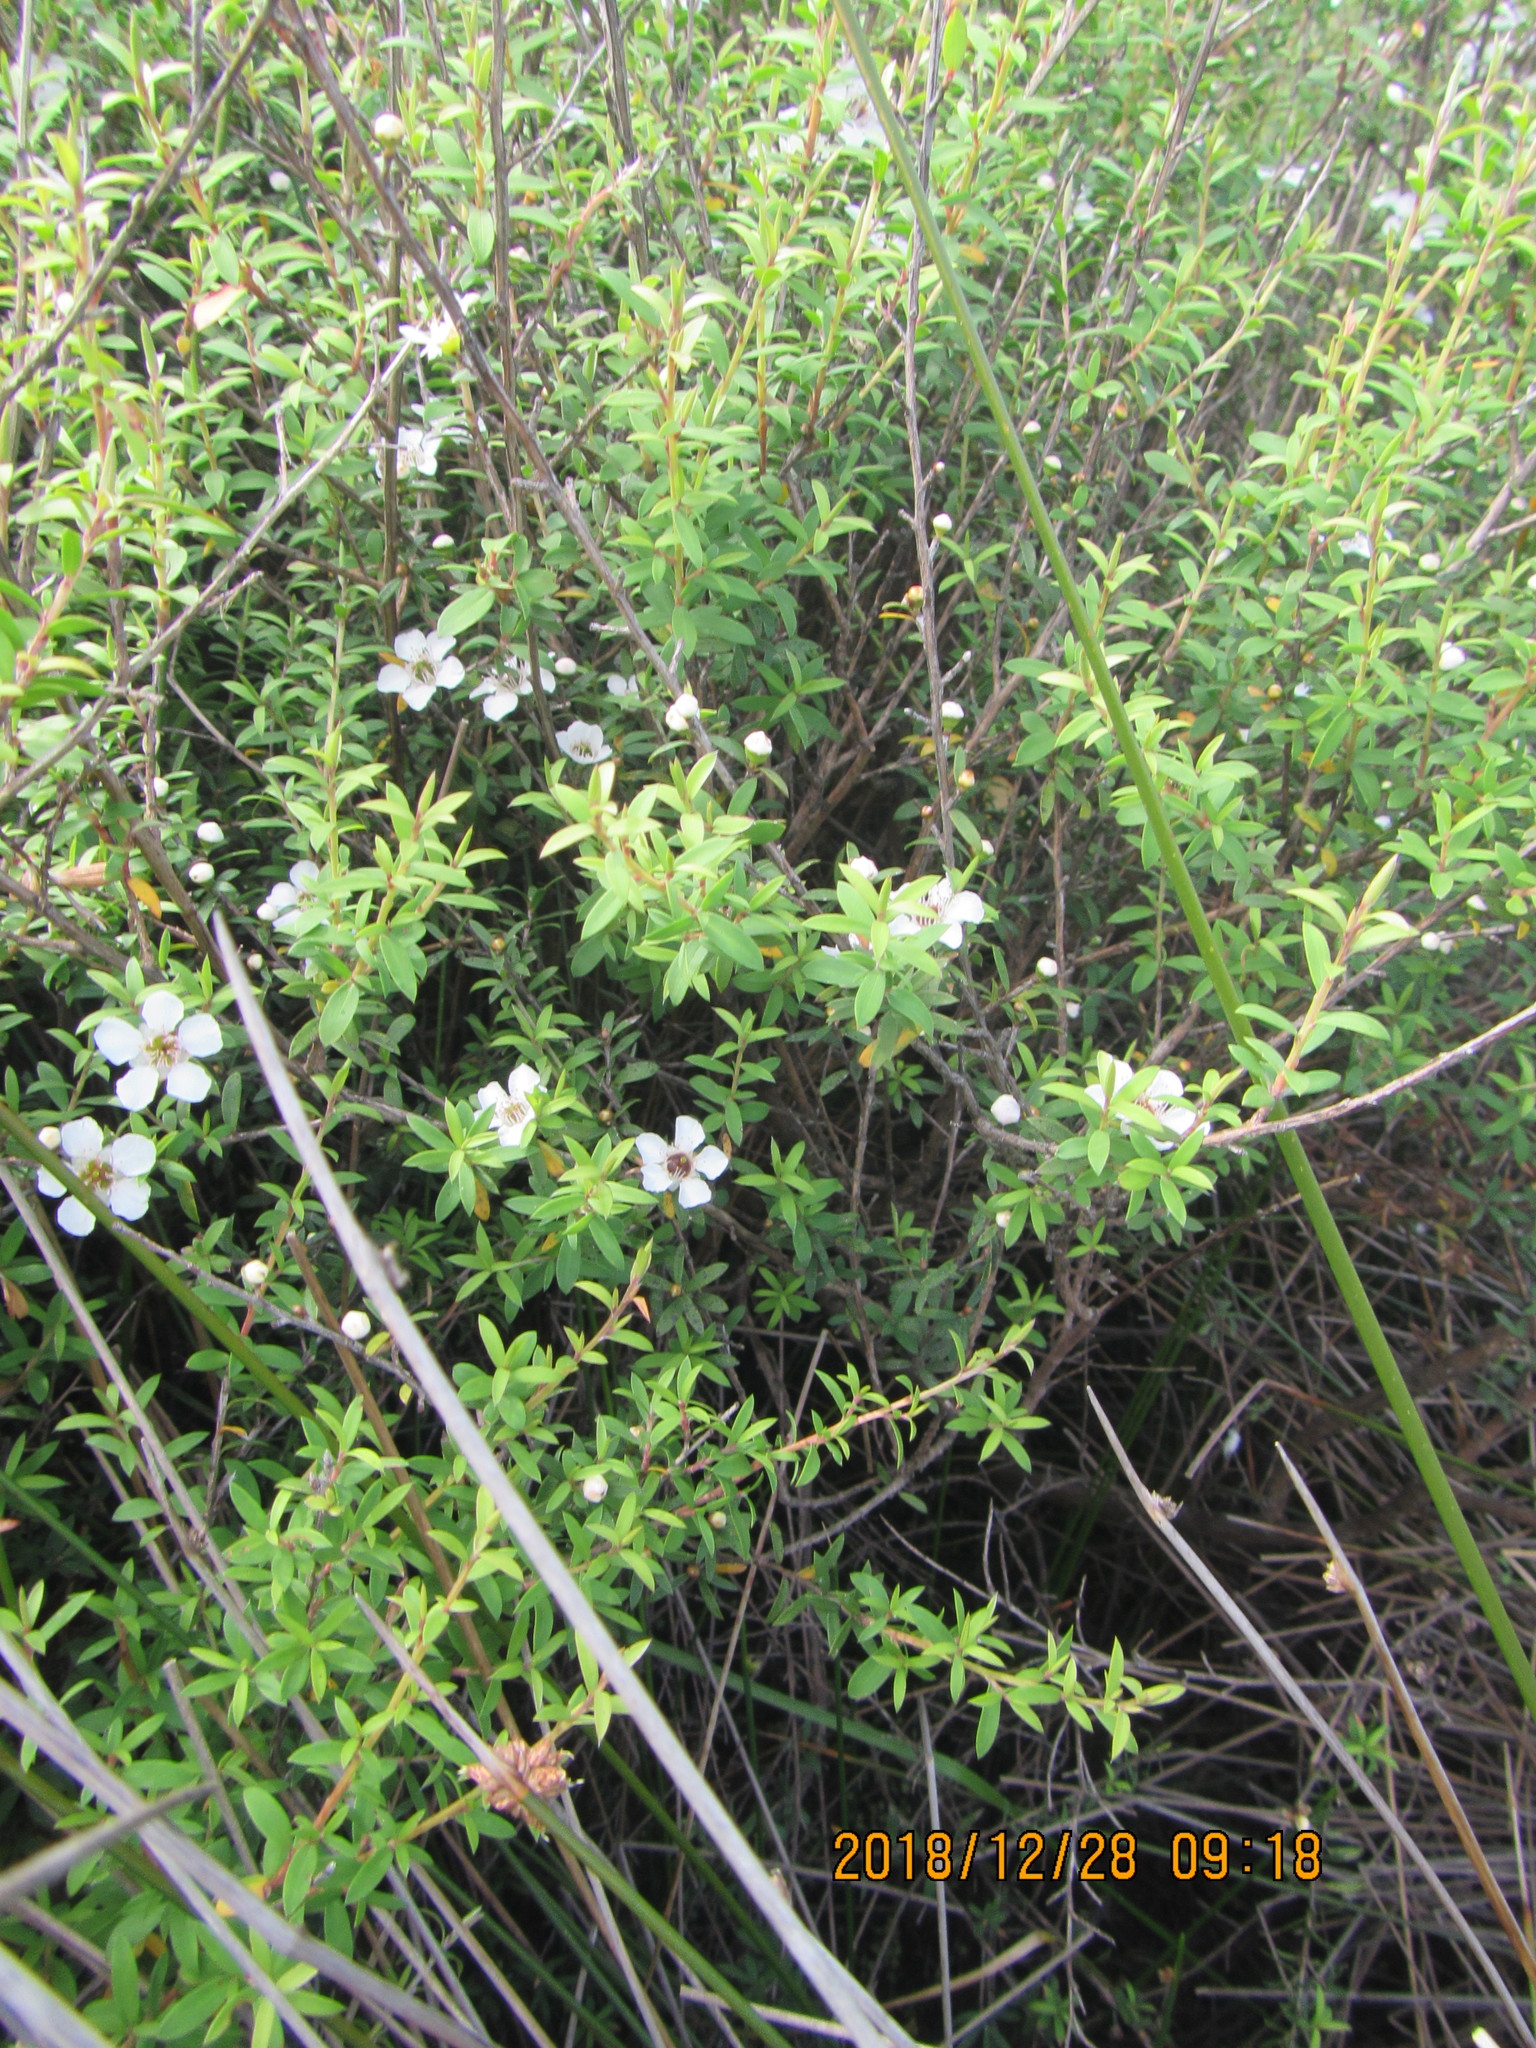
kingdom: Plantae
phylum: Tracheophyta
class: Magnoliopsida
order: Myrtales
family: Myrtaceae
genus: Leptospermum
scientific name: Leptospermum scoparium
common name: Broom tea-tree
